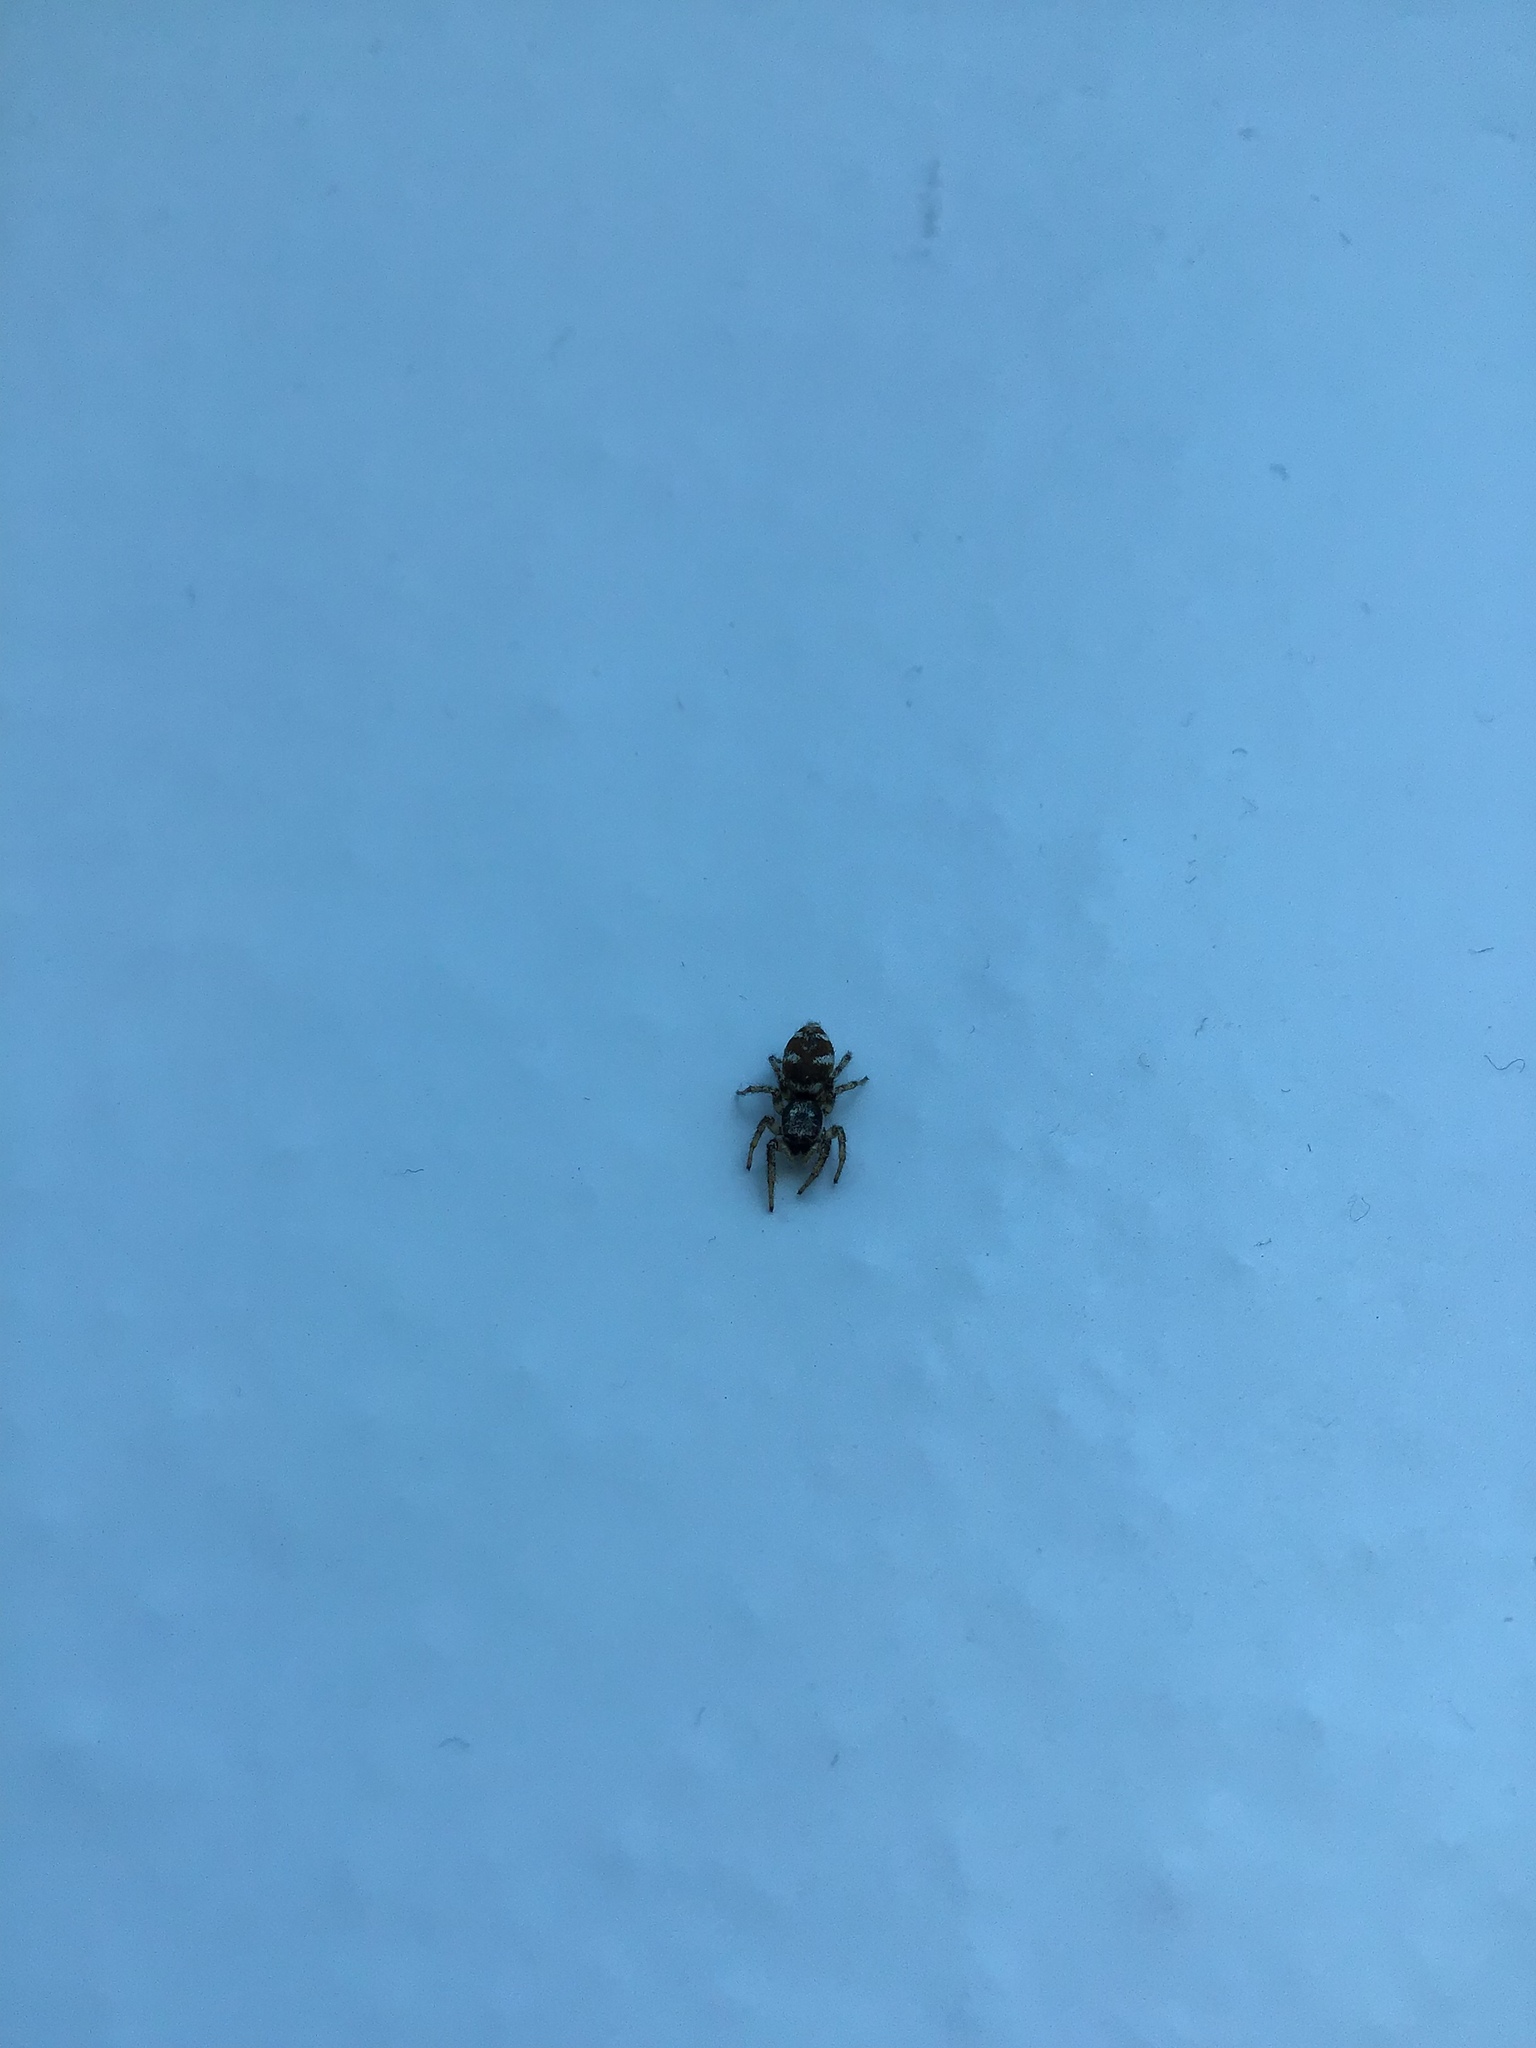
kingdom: Animalia
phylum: Arthropoda
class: Arachnida
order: Araneae
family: Salticidae
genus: Salticus
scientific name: Salticus scenicus
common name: Zebra jumper
